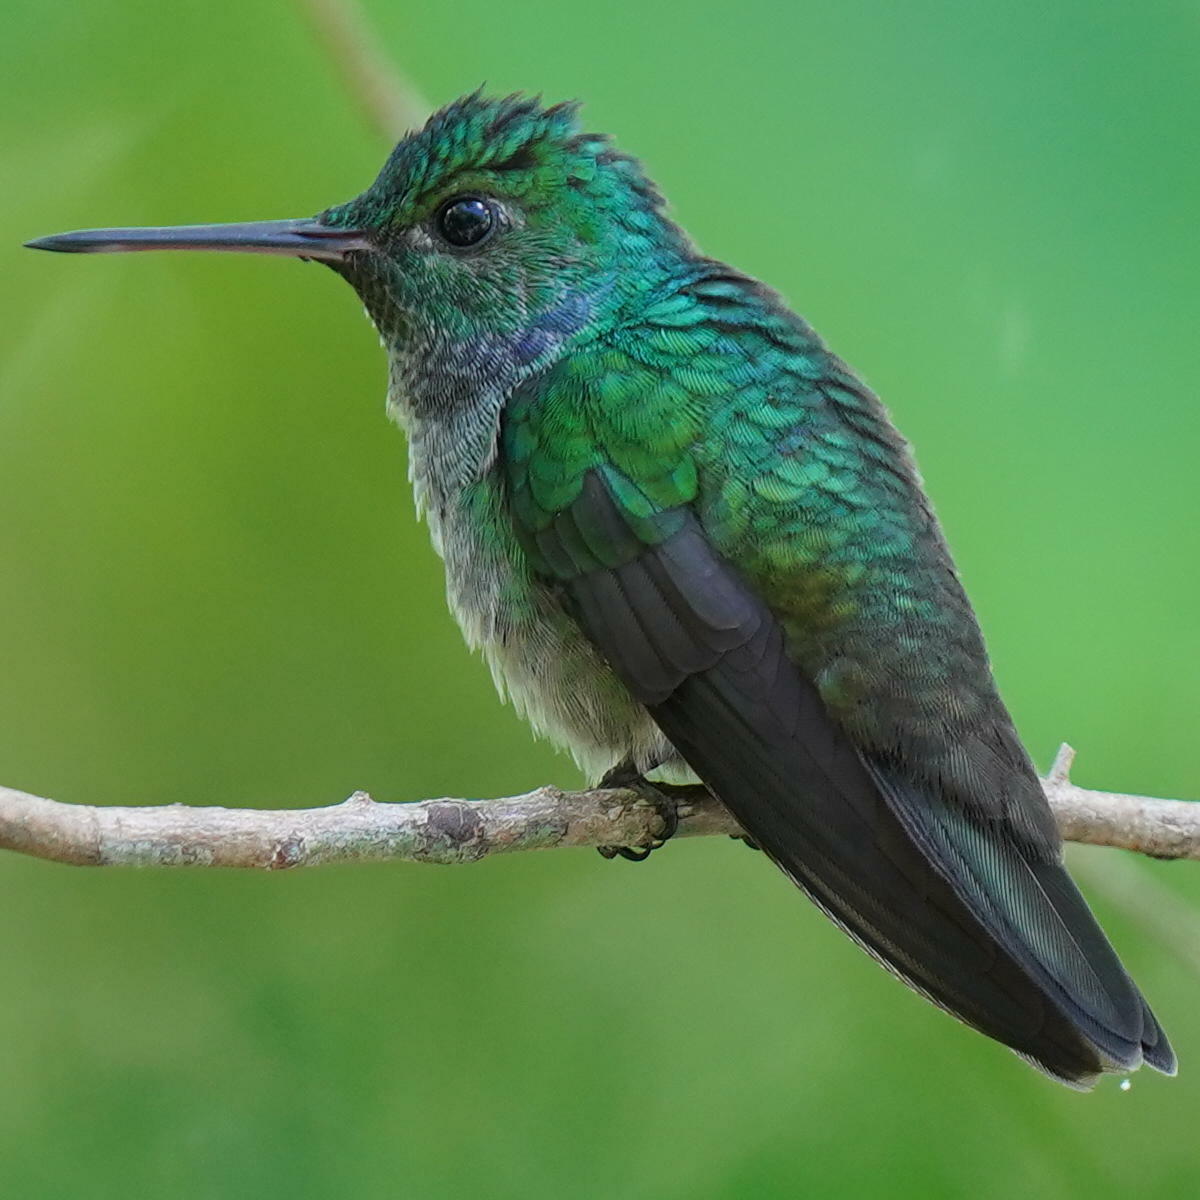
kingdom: Animalia
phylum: Chordata
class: Aves
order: Apodiformes
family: Trochilidae
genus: Polyerata
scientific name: Polyerata amabilis
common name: Blue-chested hummingbird
